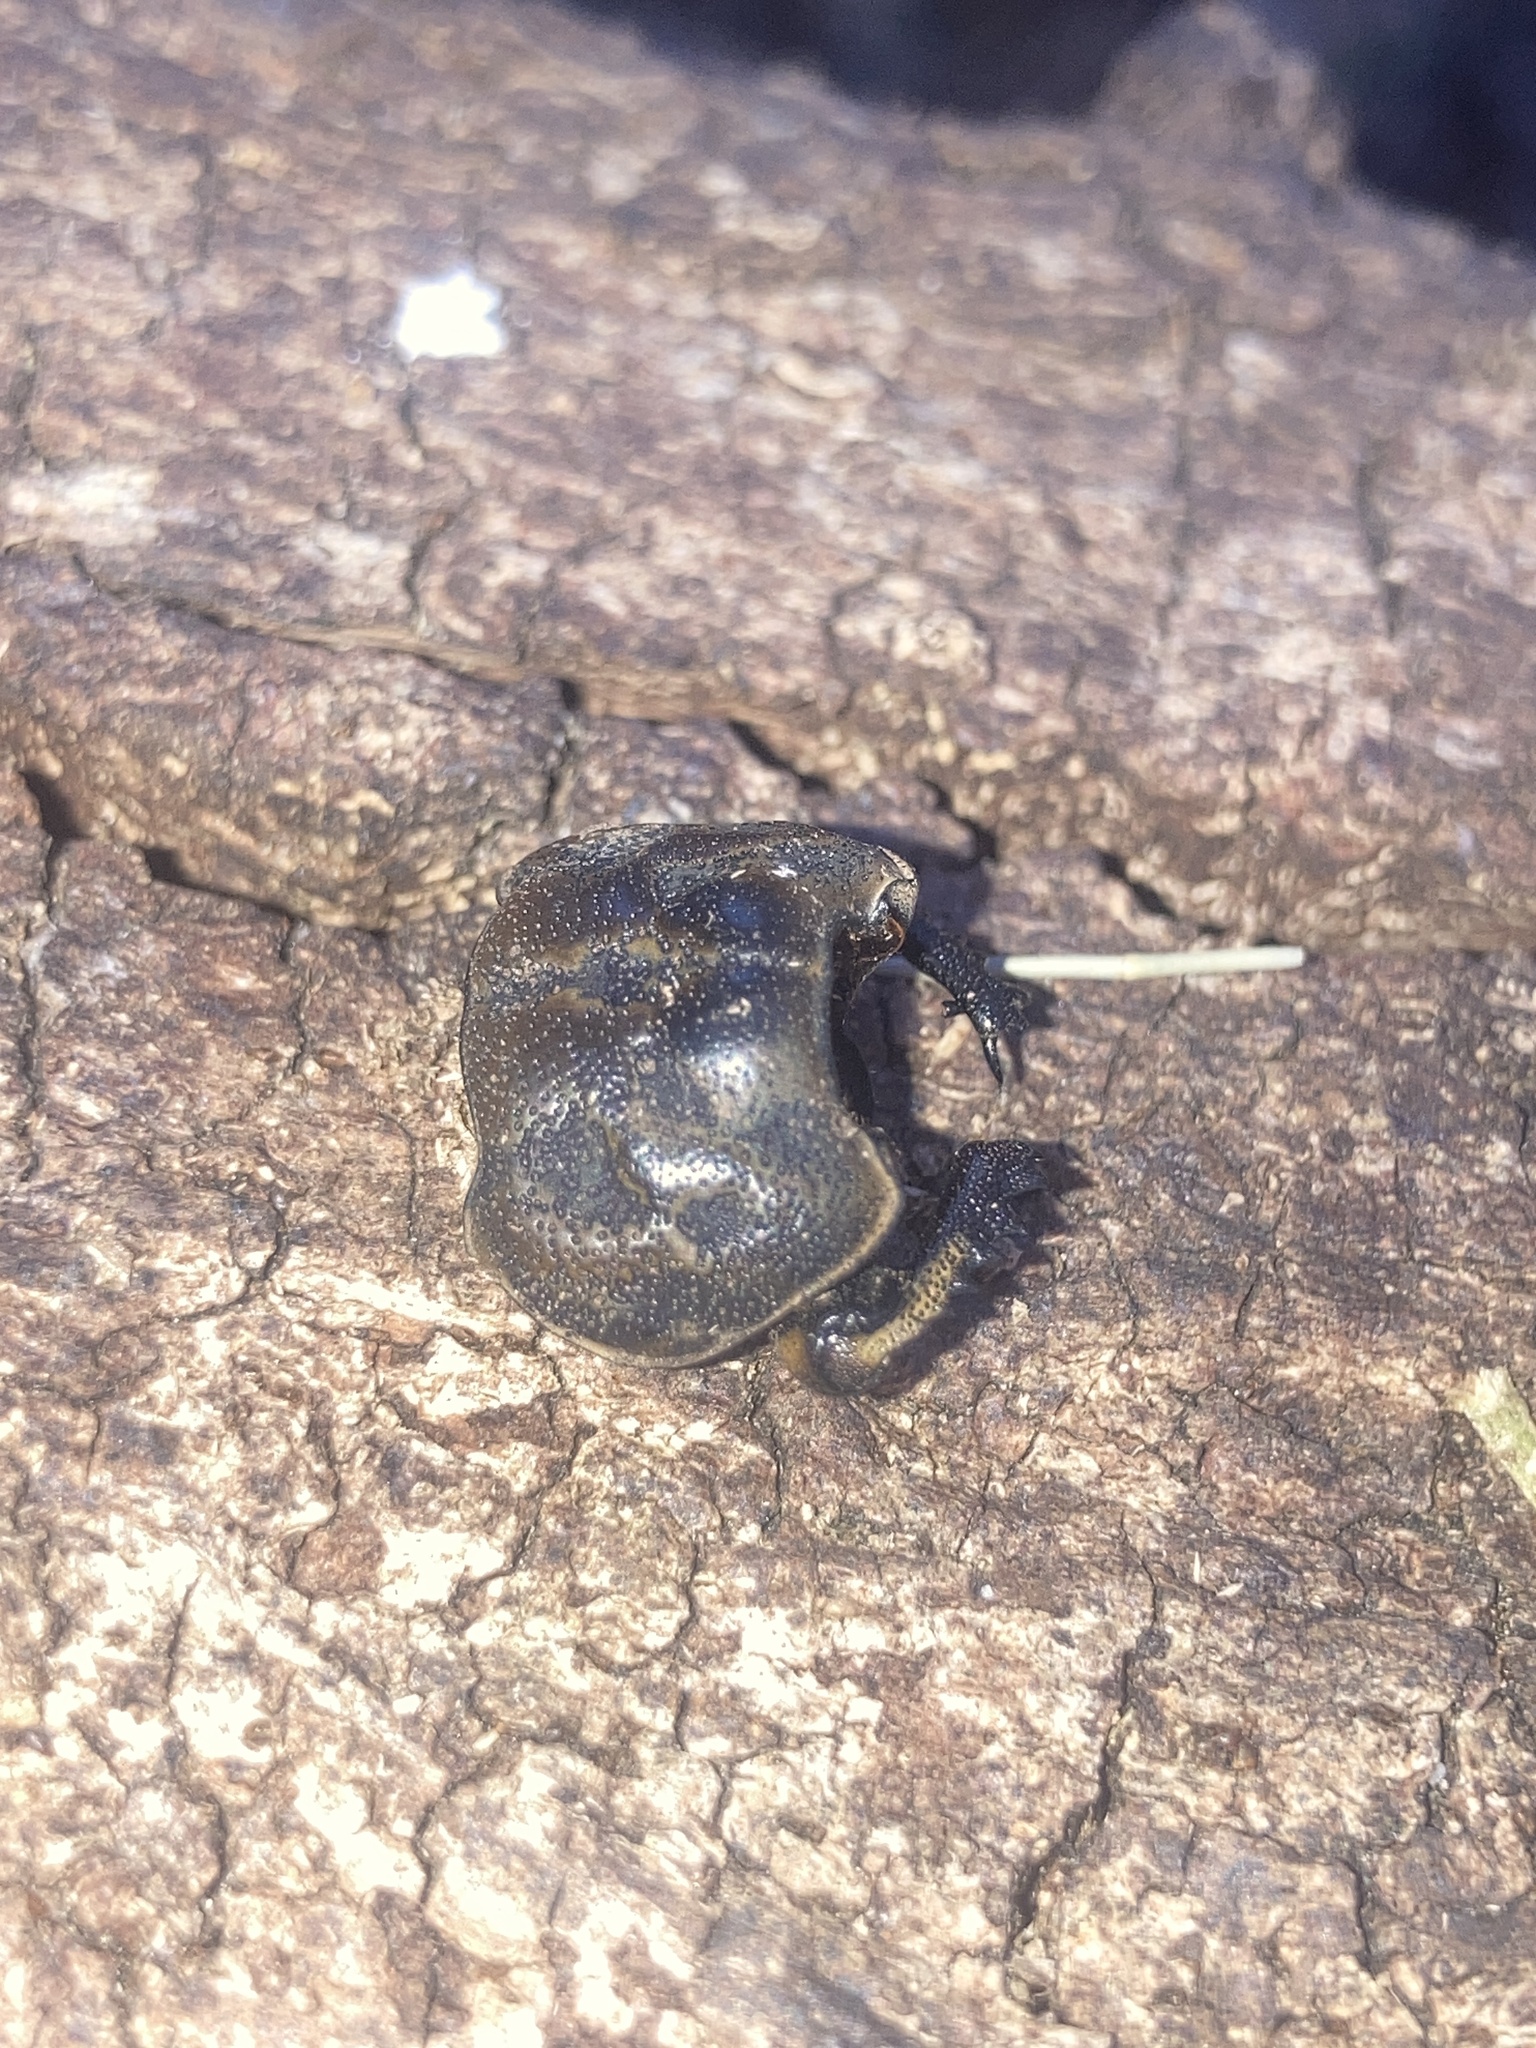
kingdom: Animalia
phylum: Arthropoda
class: Insecta
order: Coleoptera
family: Lucanidae
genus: Ryssonotus
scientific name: Ryssonotus nebulosus
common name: Brown stag beetle
